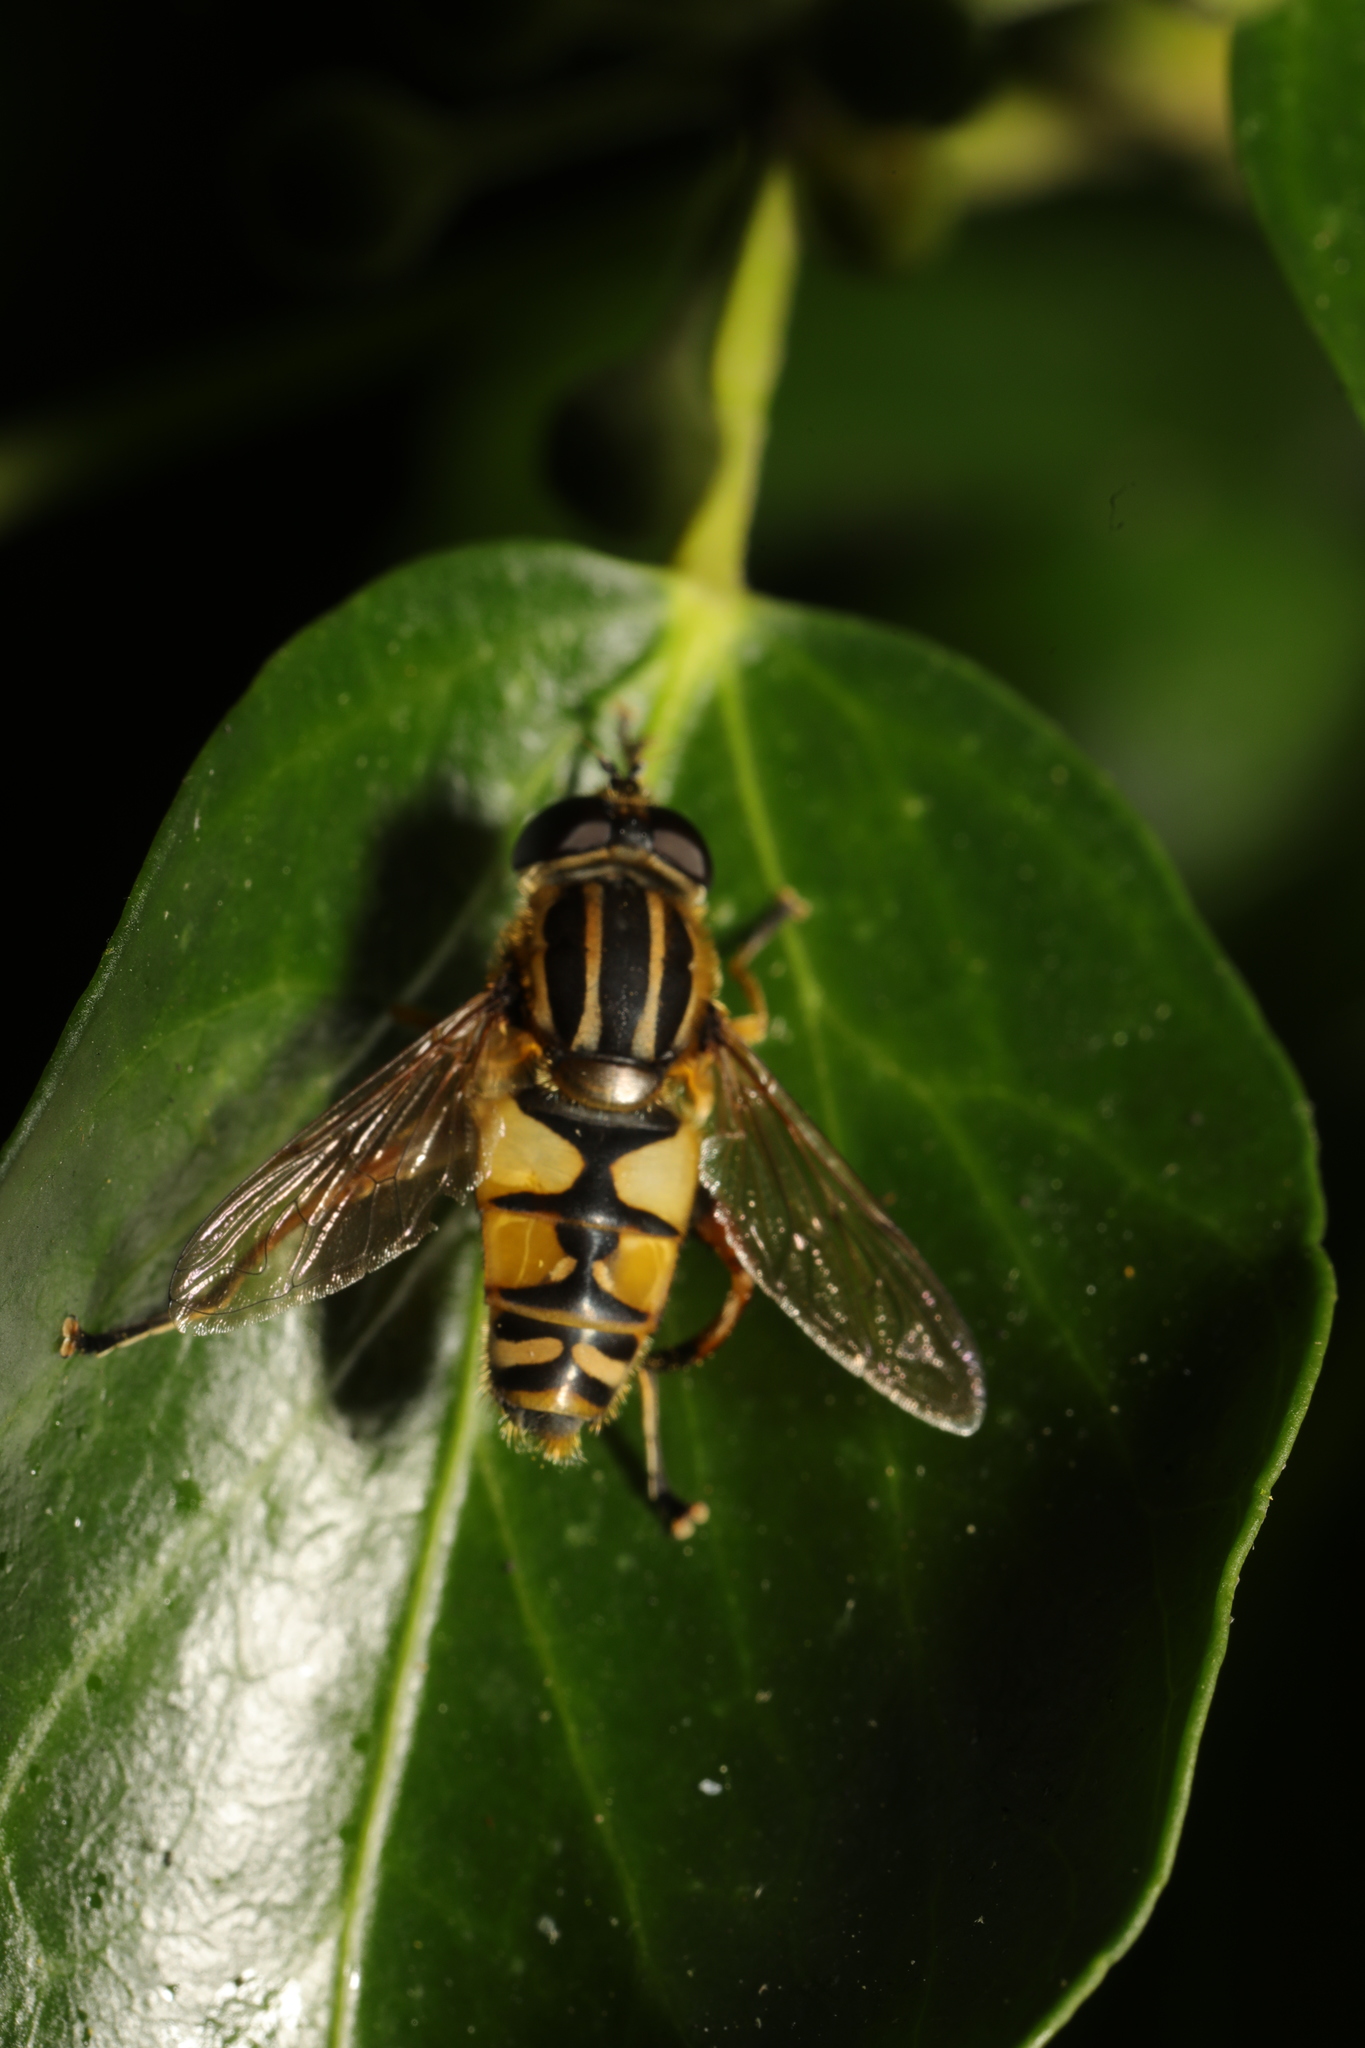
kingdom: Animalia
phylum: Arthropoda
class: Insecta
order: Diptera
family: Syrphidae
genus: Helophilus
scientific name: Helophilus pendulus
